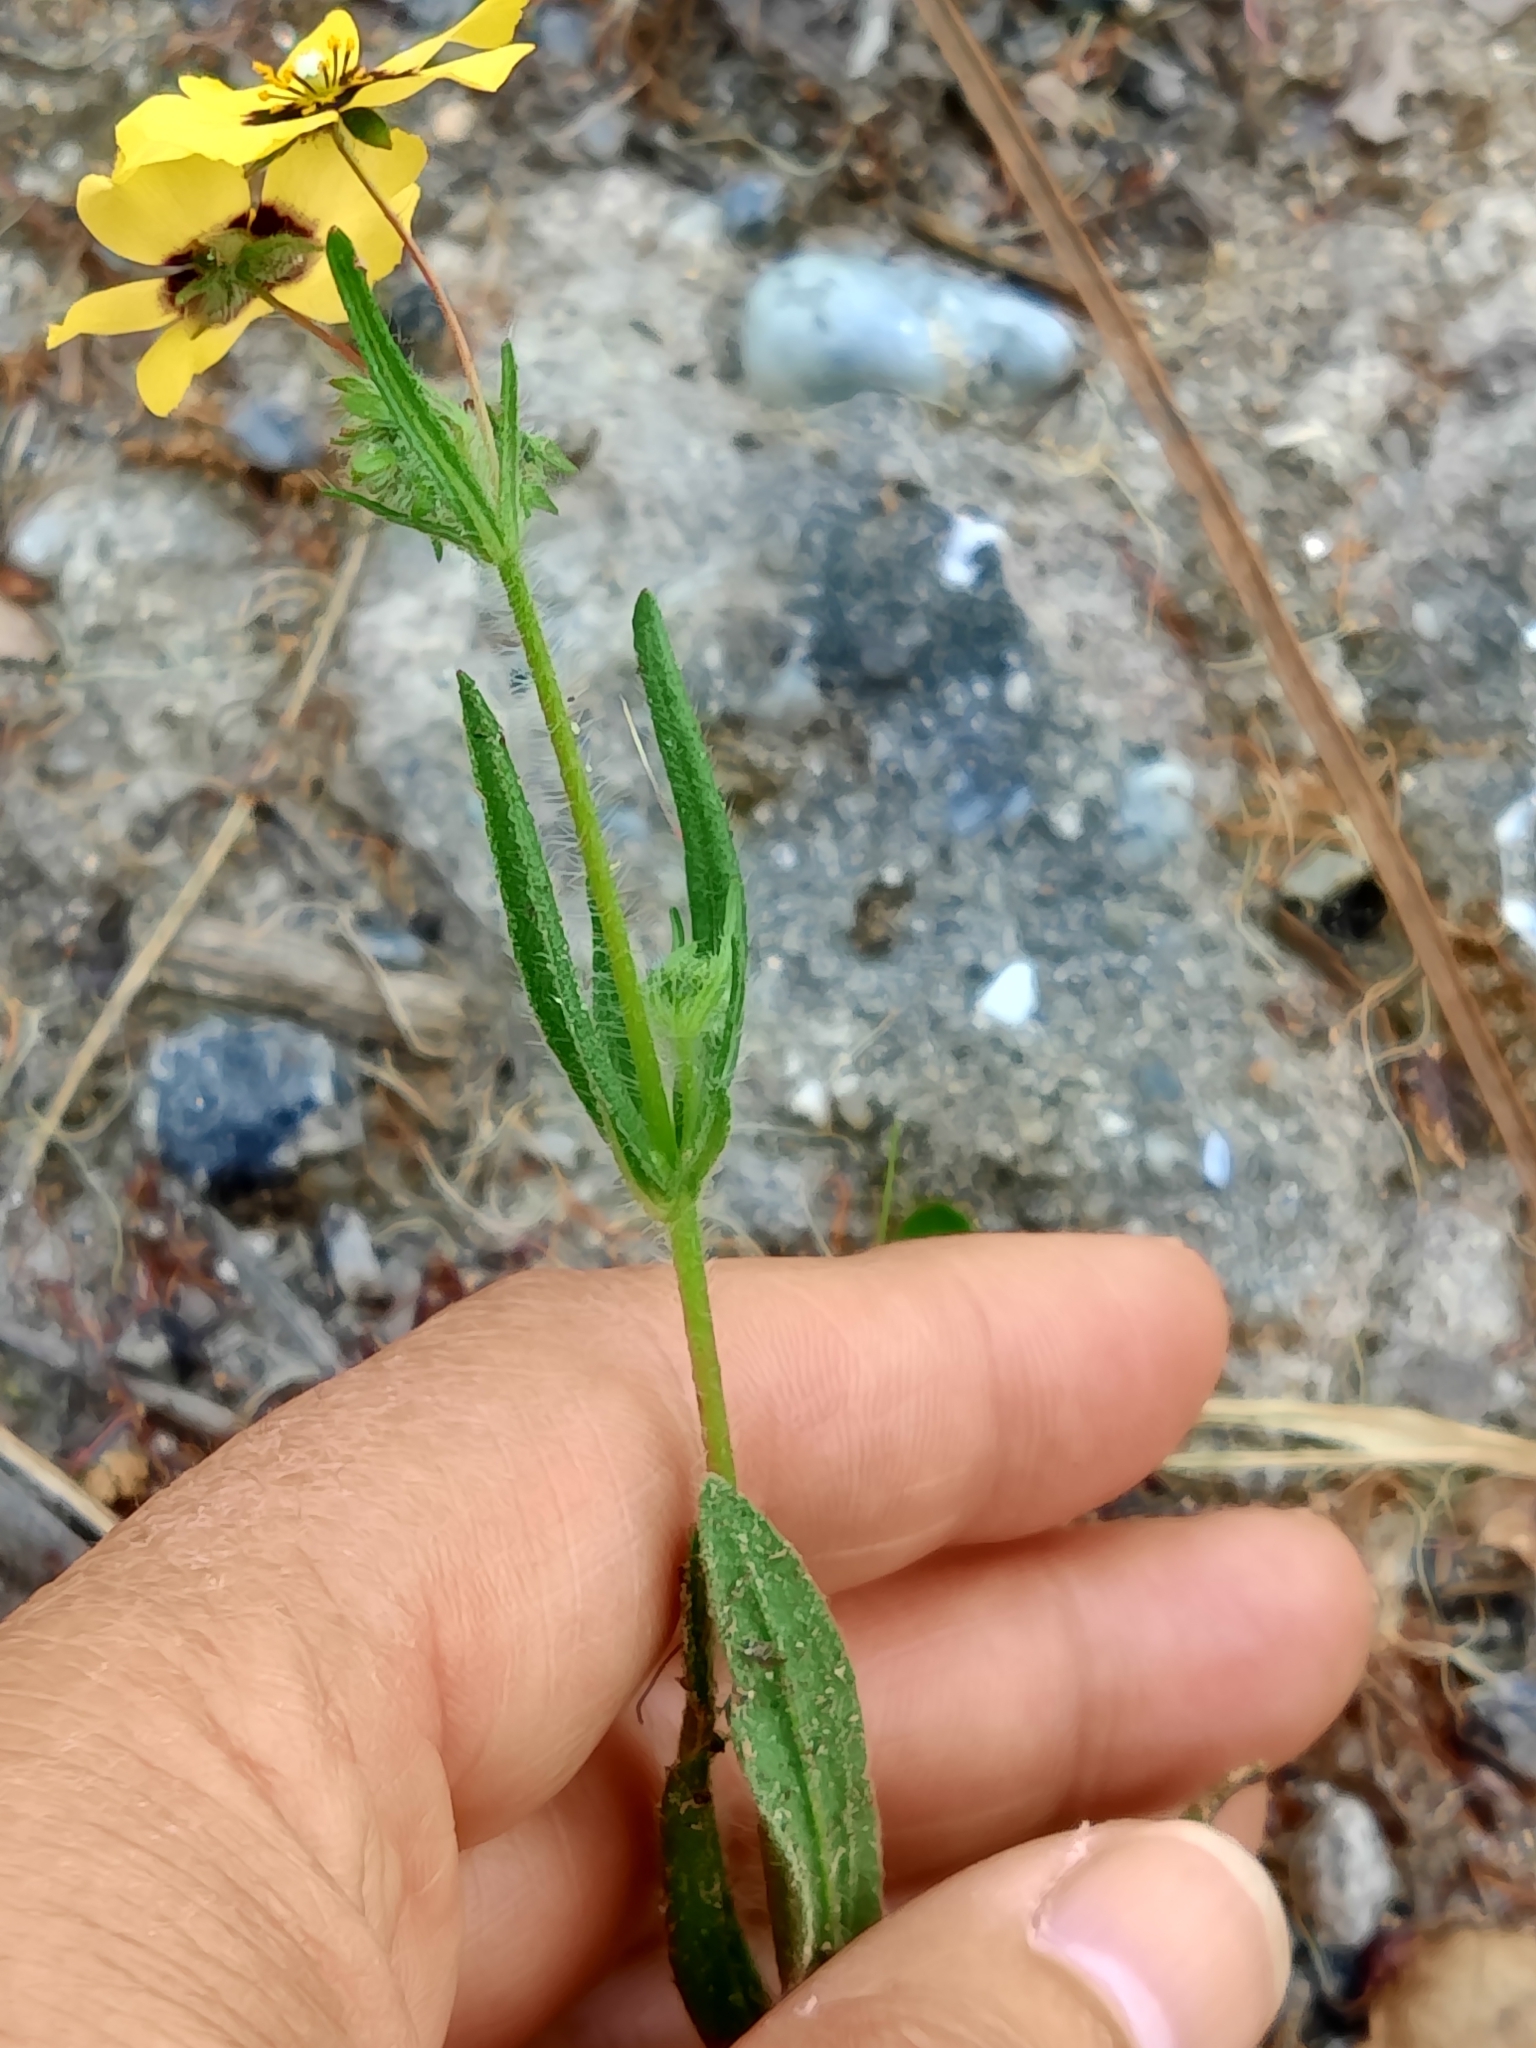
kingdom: Plantae
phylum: Tracheophyta
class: Magnoliopsida
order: Malvales
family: Cistaceae
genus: Tuberaria
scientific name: Tuberaria guttata
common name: Spotted rock-rose
